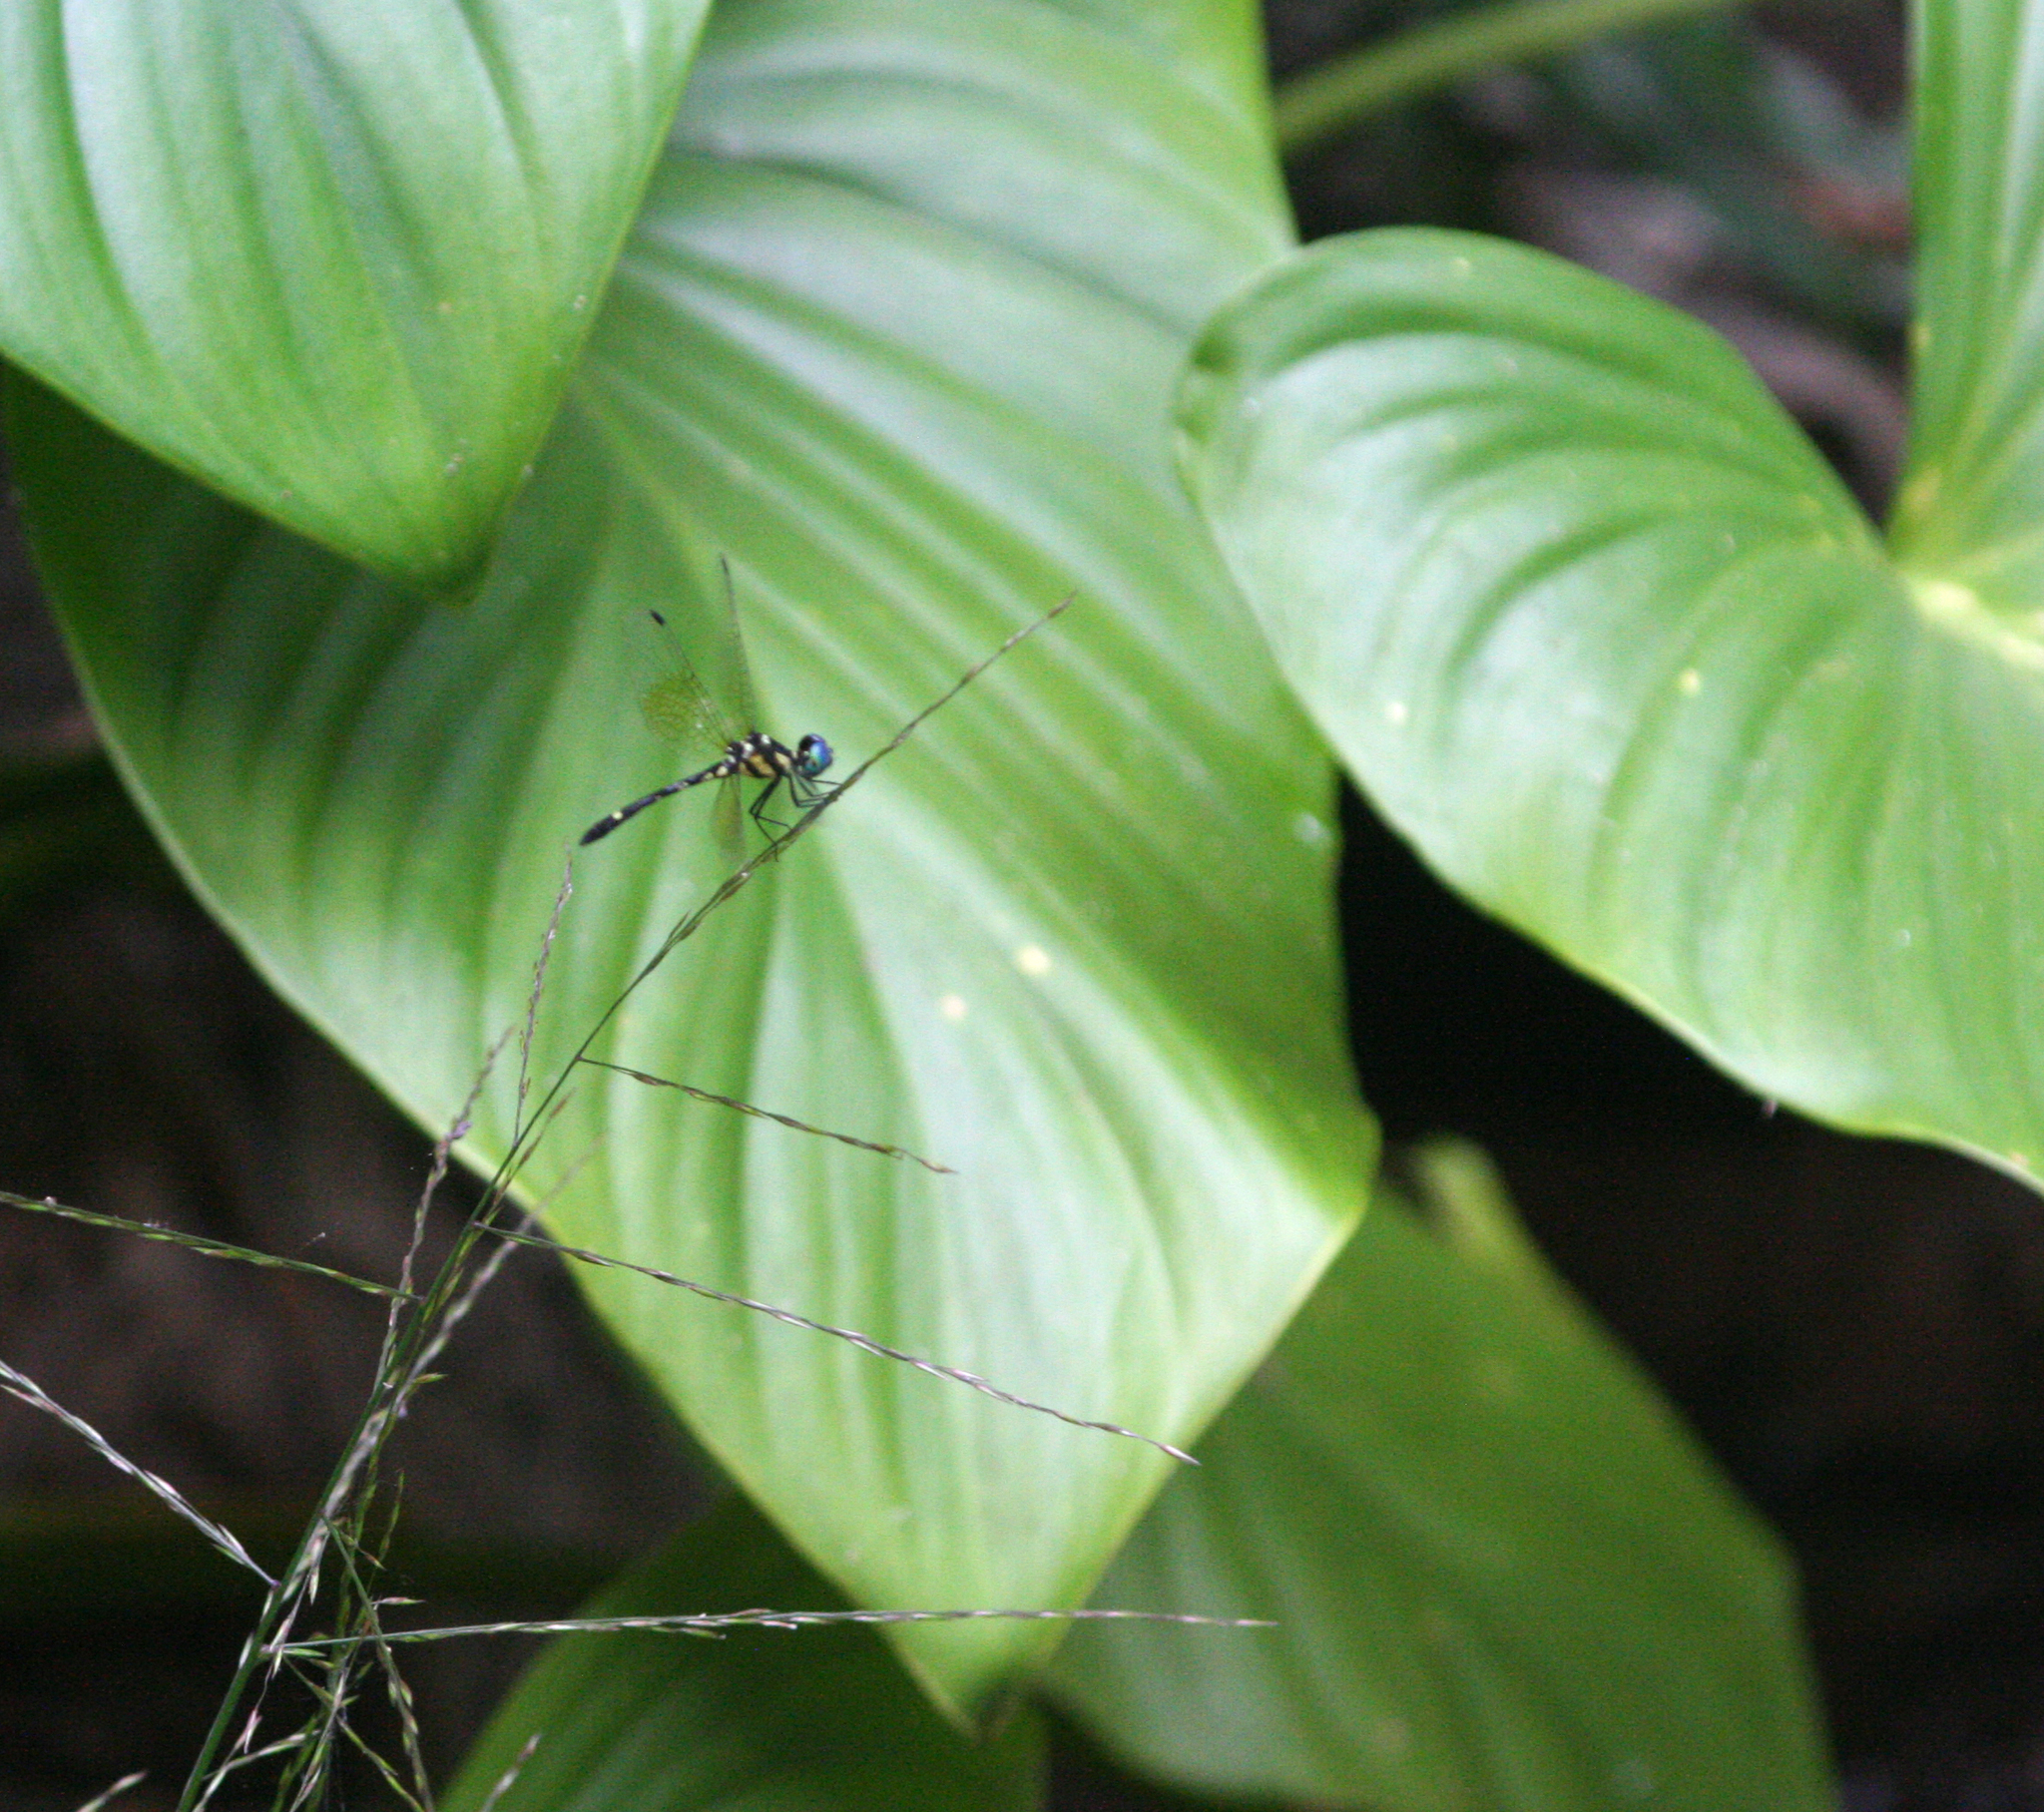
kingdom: Animalia
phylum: Arthropoda
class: Insecta
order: Odonata
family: Libellulidae
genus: Tetrathemis
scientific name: Tetrathemis platyptera
